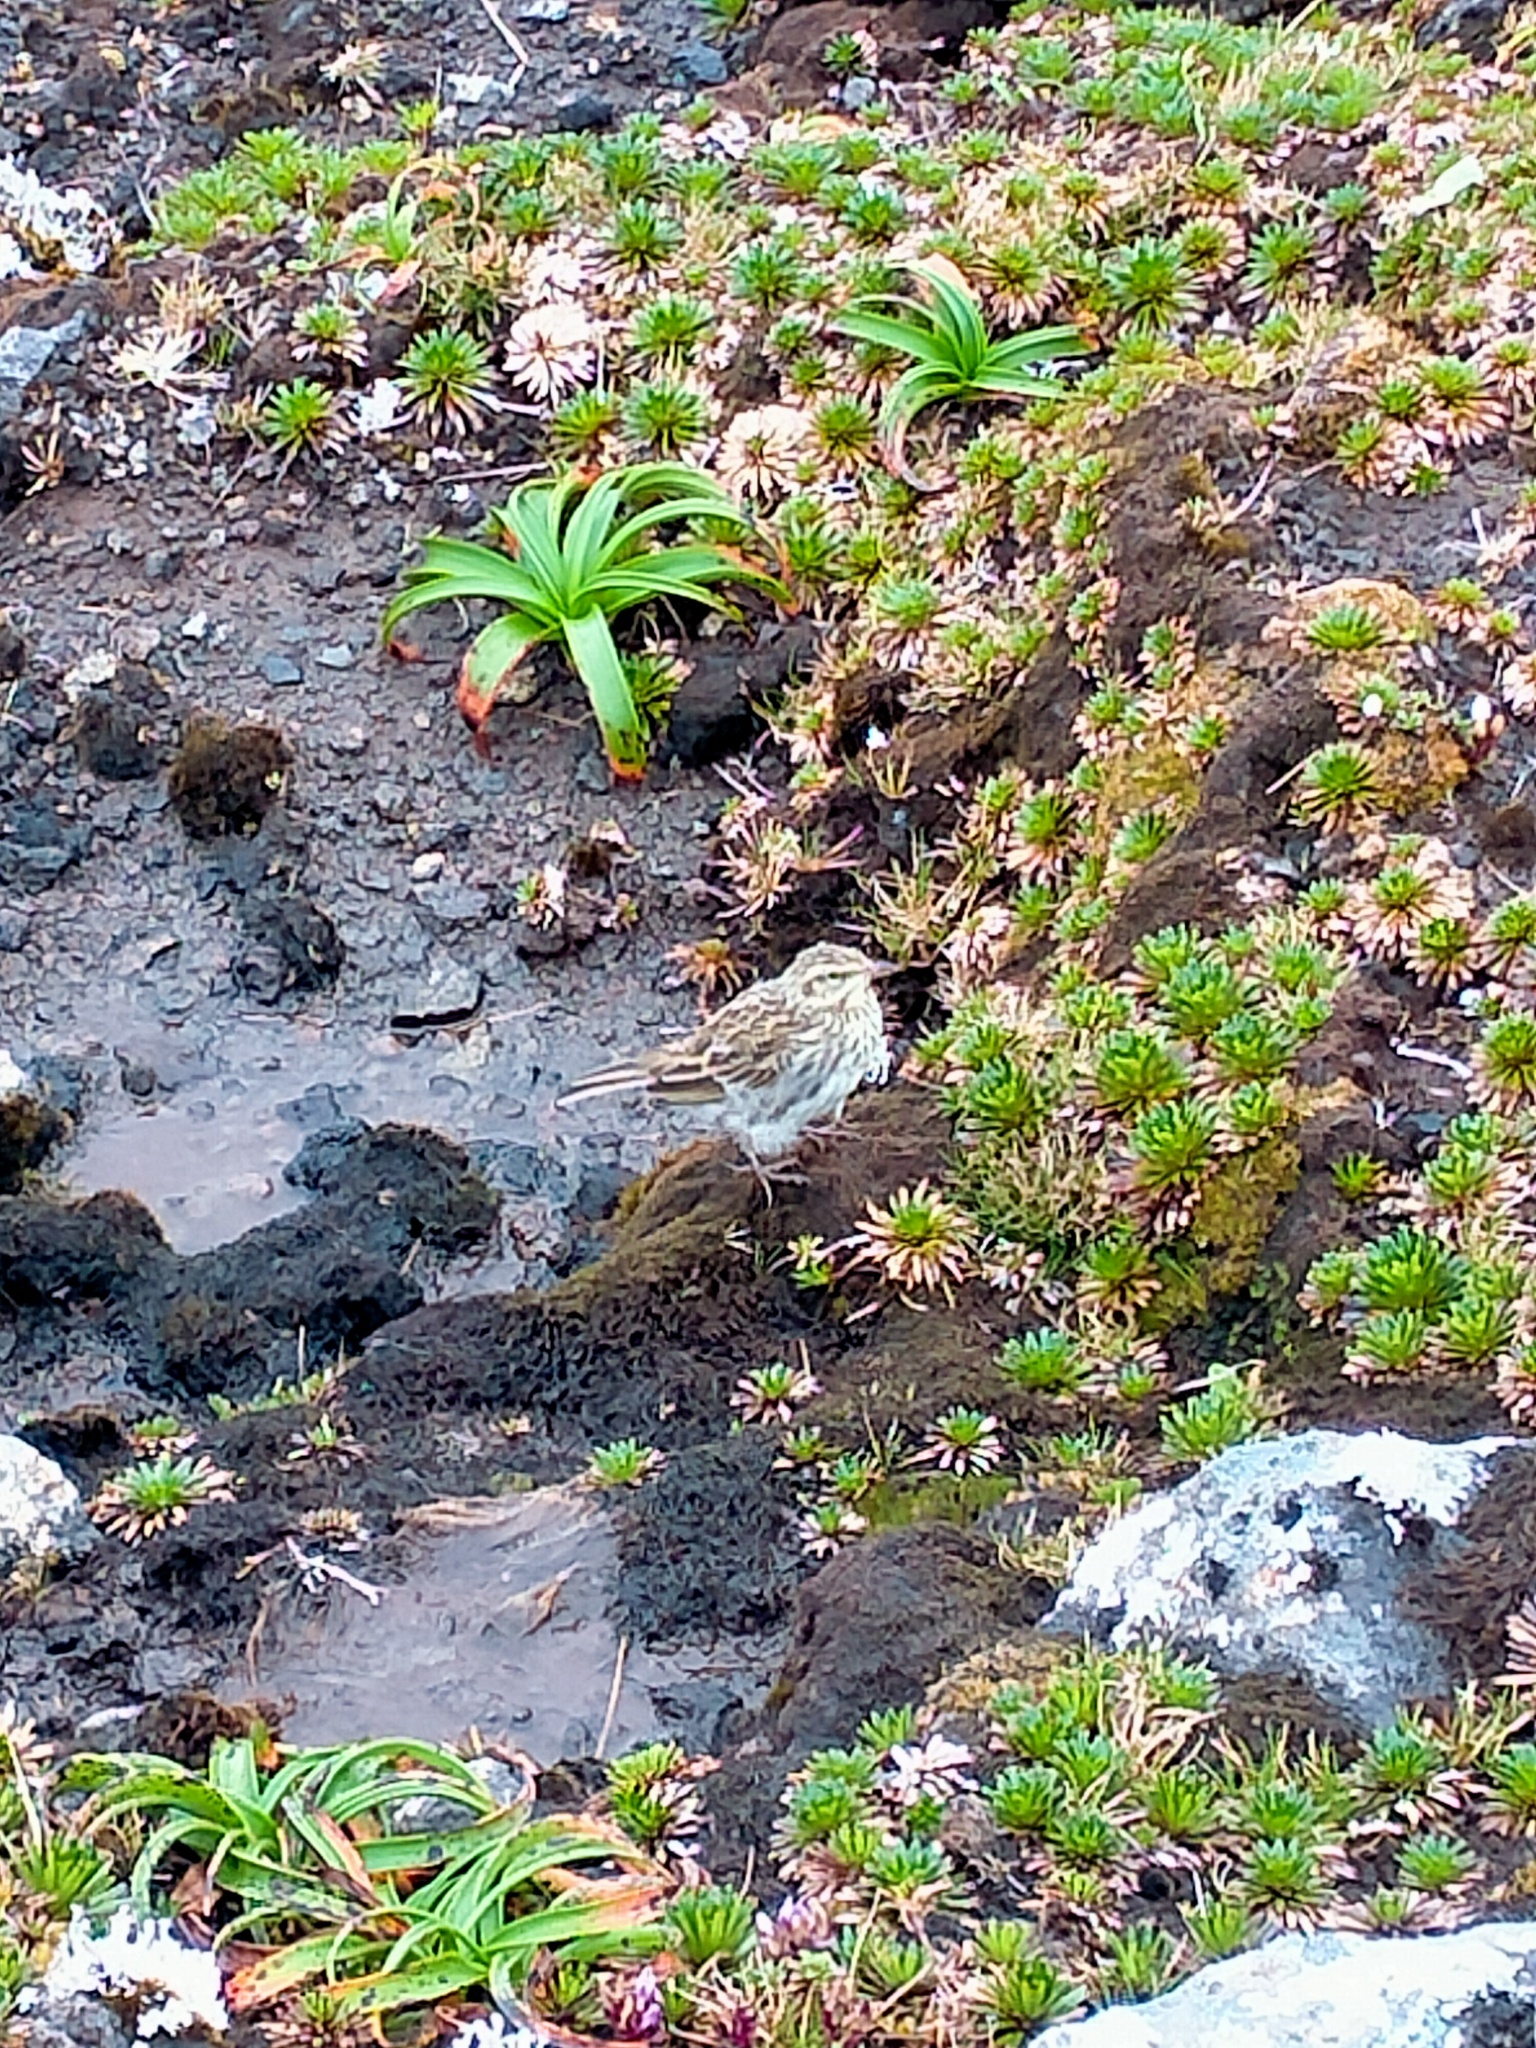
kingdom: Animalia
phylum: Chordata
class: Aves
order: Passeriformes
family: Motacillidae
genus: Anthus
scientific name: Anthus novaeseelandiae
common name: New zealand pipit
